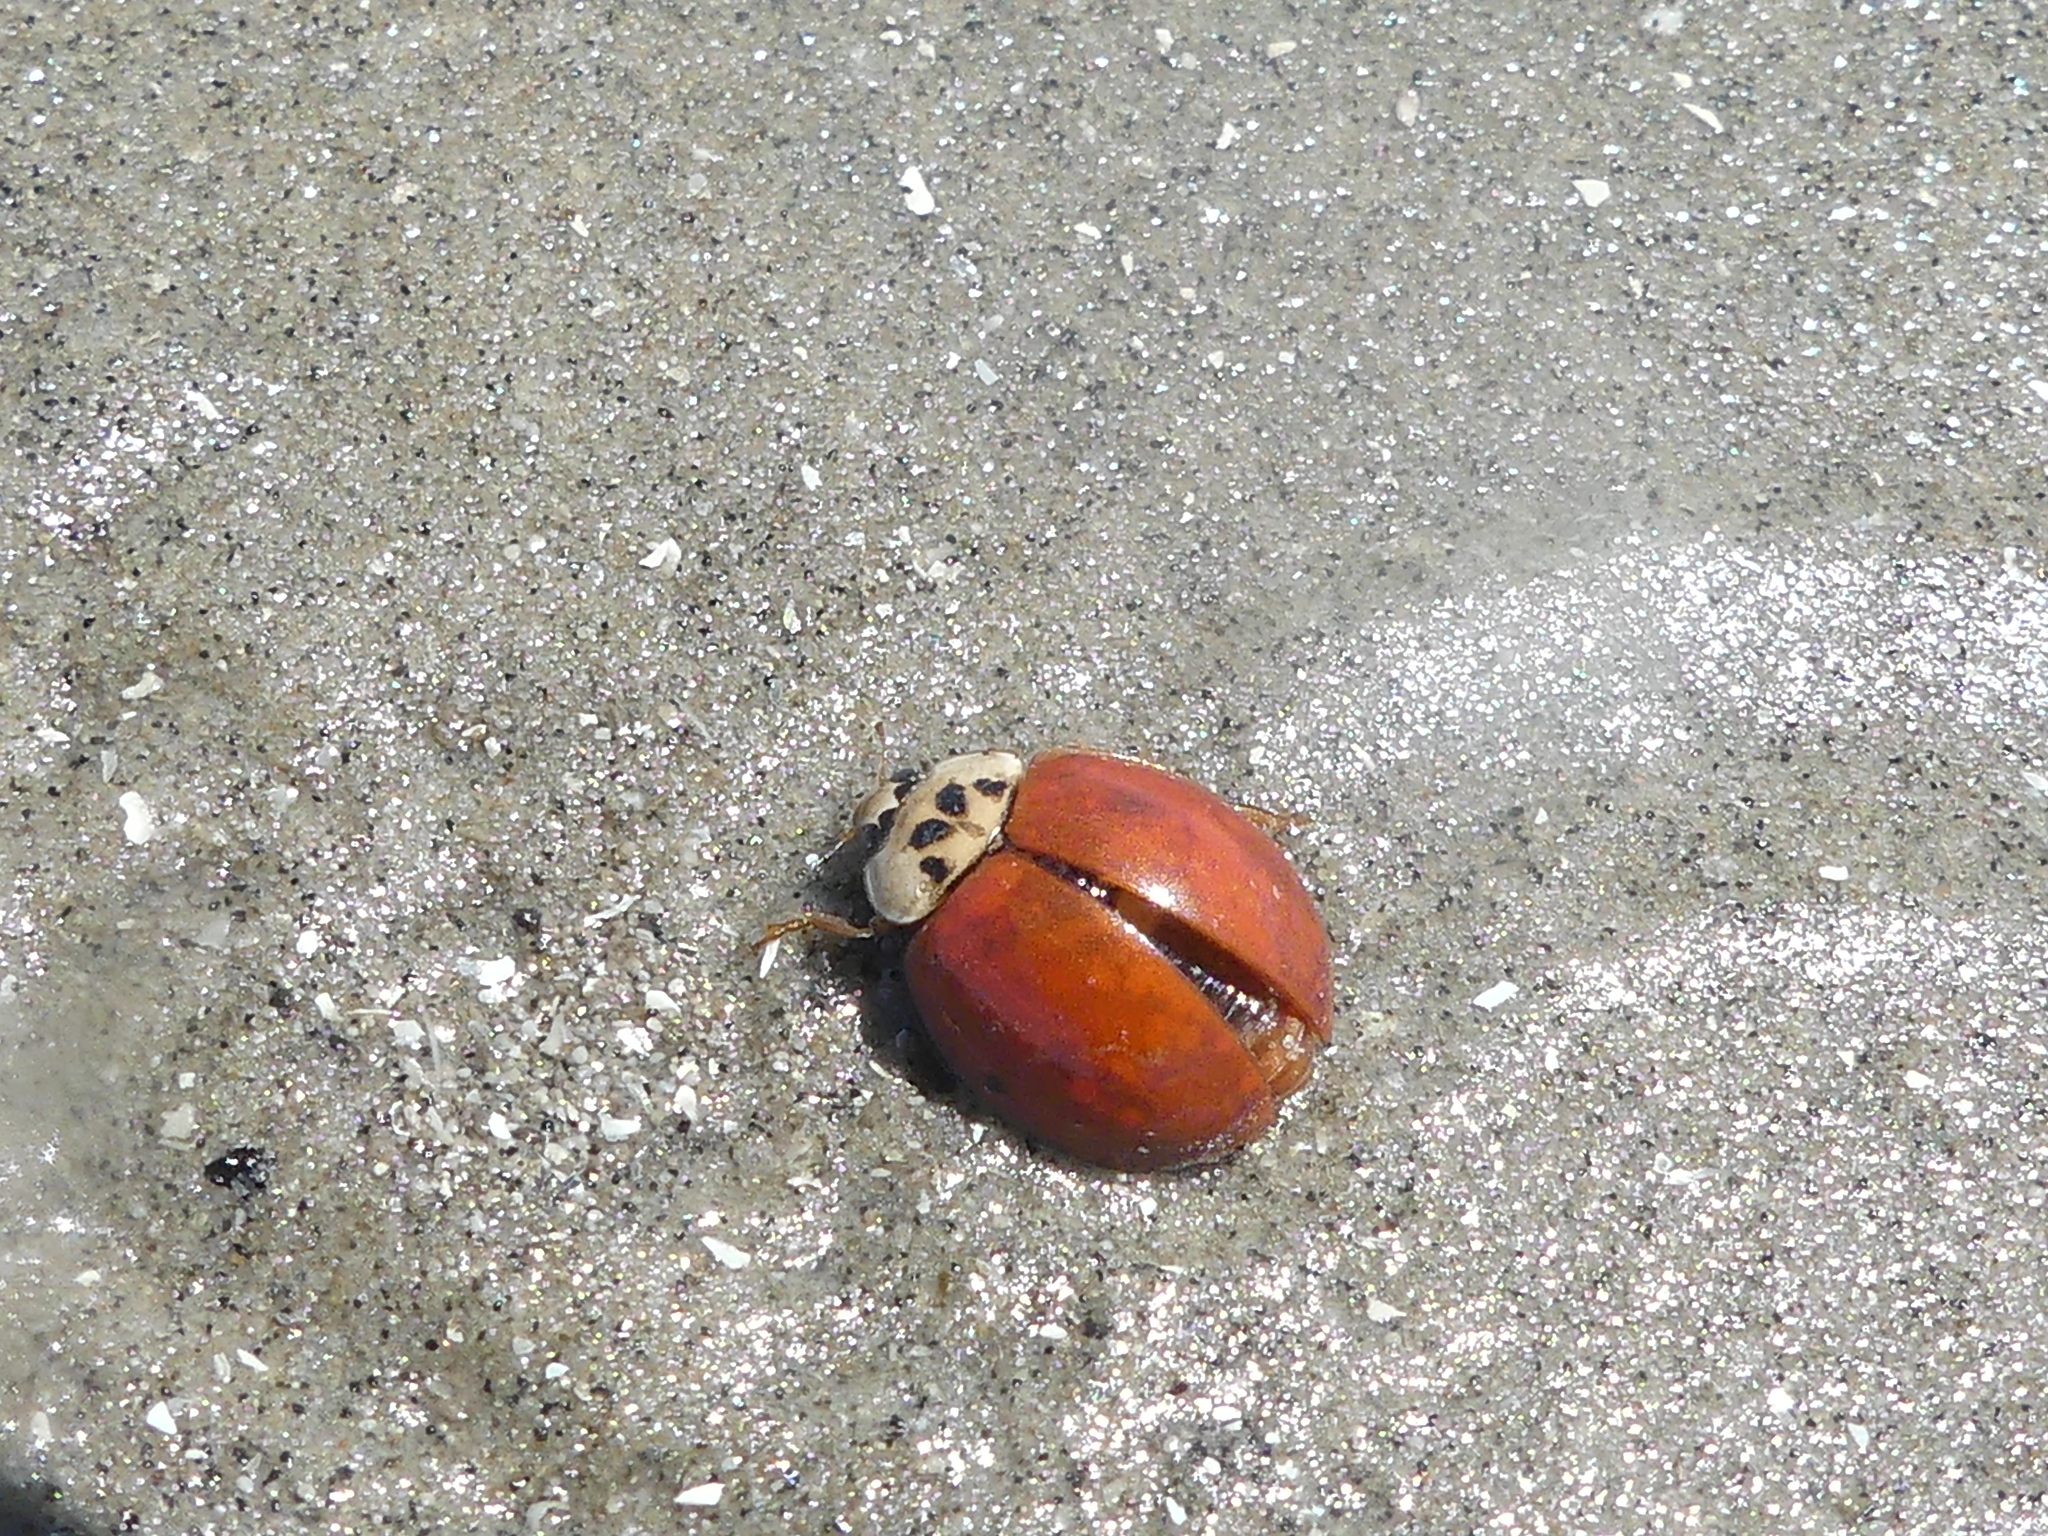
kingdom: Animalia
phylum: Arthropoda
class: Insecta
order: Coleoptera
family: Coccinellidae
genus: Harmonia
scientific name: Harmonia axyridis
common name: Harlequin ladybird
